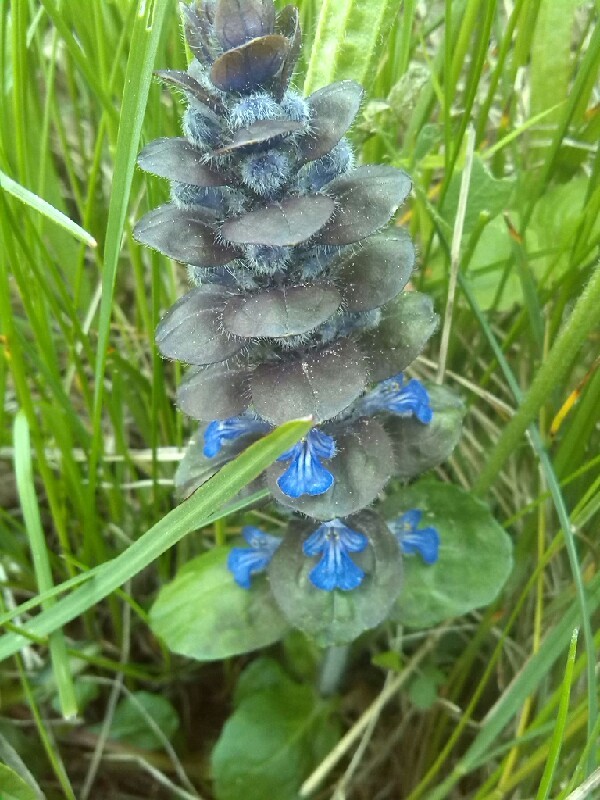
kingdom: Plantae
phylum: Tracheophyta
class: Magnoliopsida
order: Lamiales
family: Lamiaceae
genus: Ajuga
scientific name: Ajuga reptans
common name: Bugle
